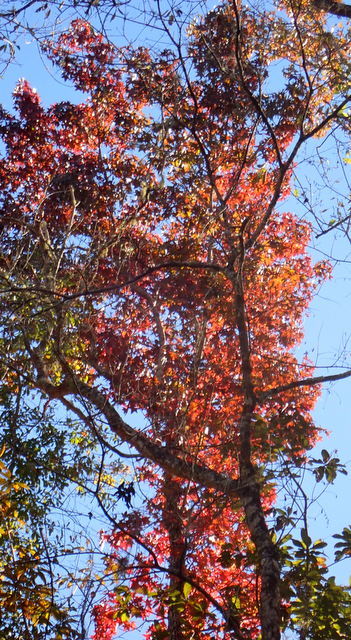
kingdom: Plantae
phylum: Tracheophyta
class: Magnoliopsida
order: Saxifragales
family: Altingiaceae
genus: Liquidambar
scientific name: Liquidambar styraciflua
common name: Sweet gum
